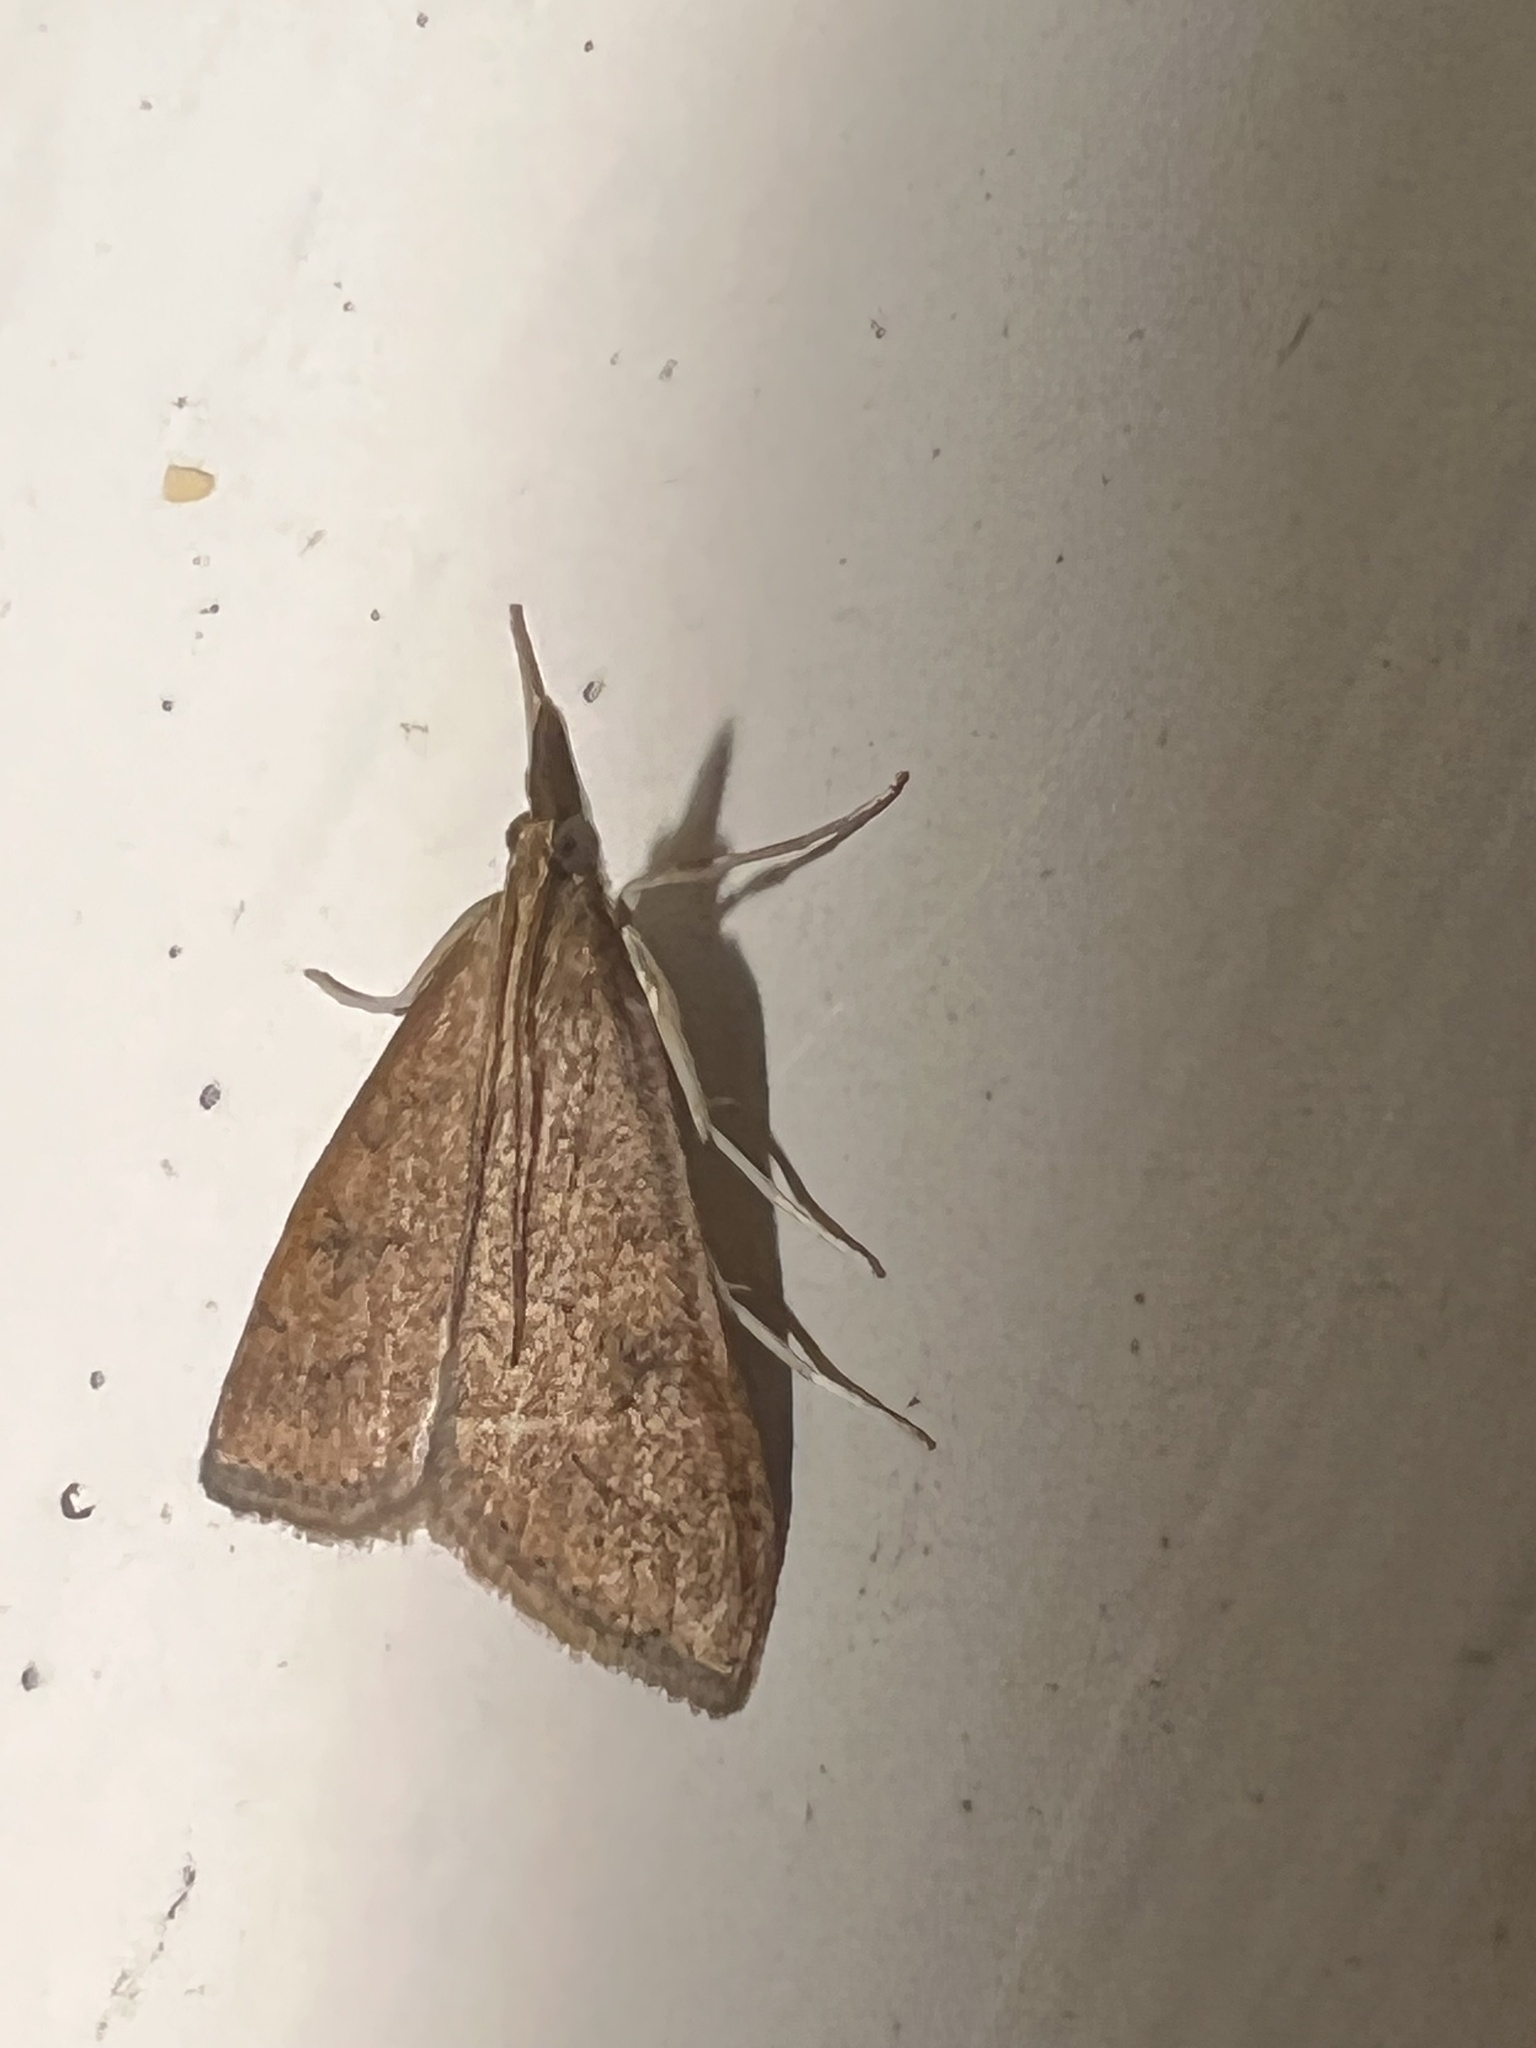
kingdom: Animalia
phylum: Arthropoda
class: Insecta
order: Lepidoptera
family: Crambidae
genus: Udea
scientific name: Udea rubigalis
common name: Celery leaftier moth
